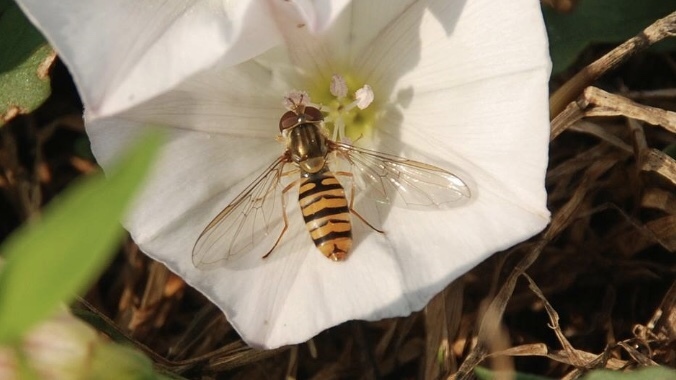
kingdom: Animalia
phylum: Arthropoda
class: Insecta
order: Diptera
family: Syrphidae
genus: Episyrphus
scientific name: Episyrphus balteatus
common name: Marmalade hoverfly
